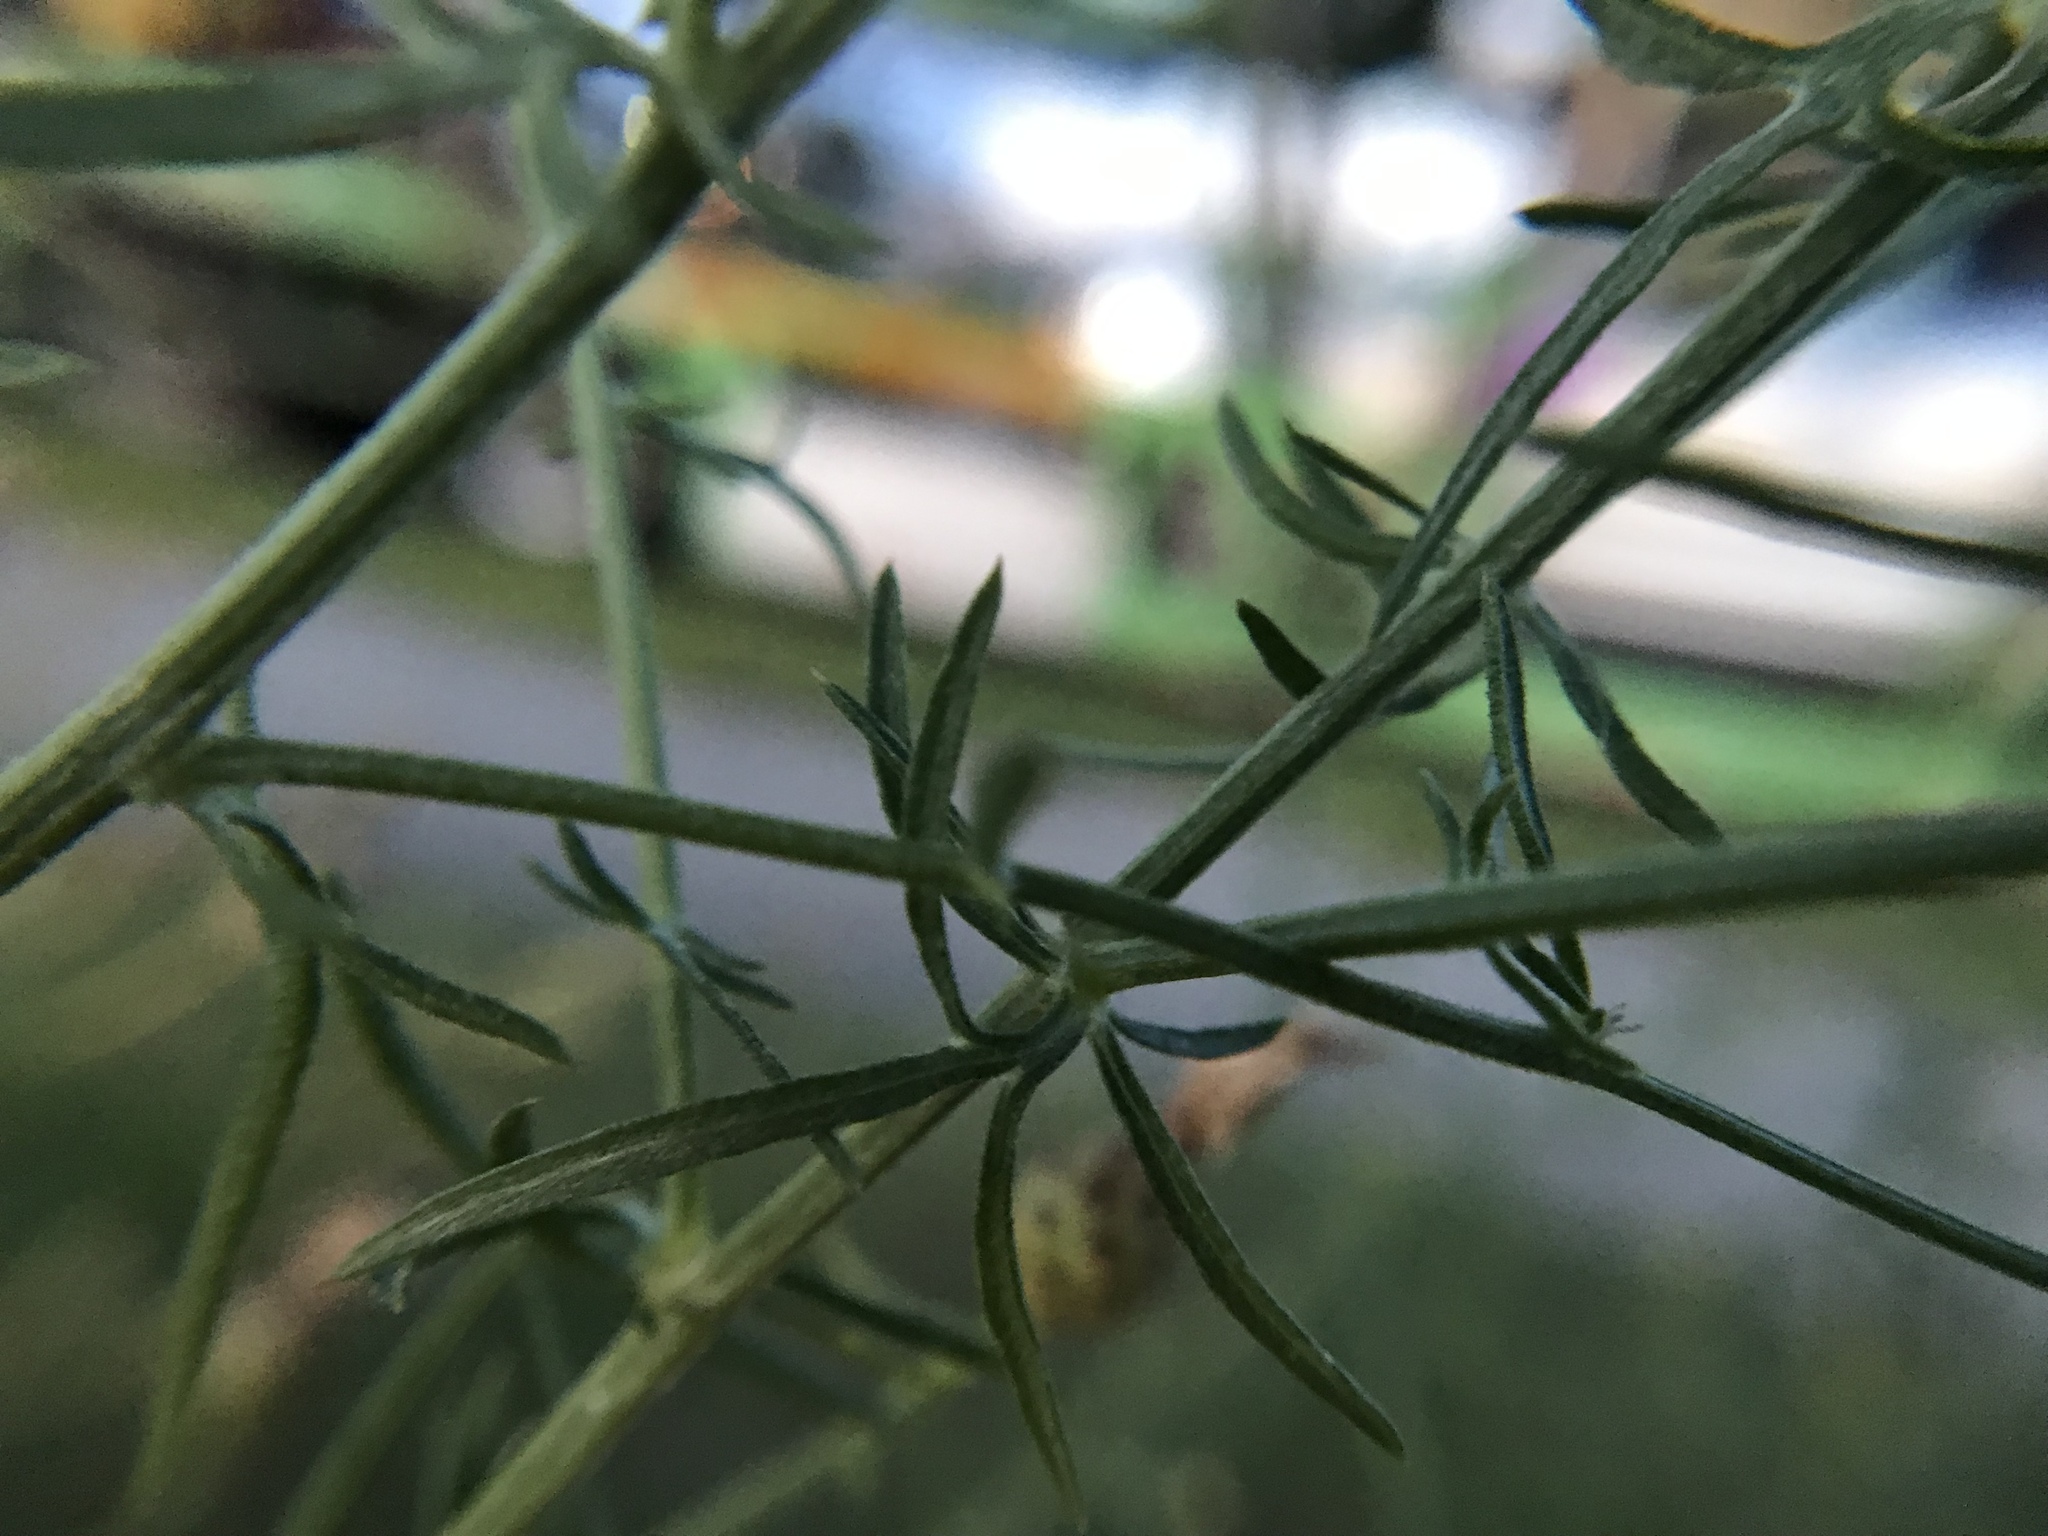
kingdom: Plantae
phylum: Tracheophyta
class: Magnoliopsida
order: Asterales
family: Asteraceae
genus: Centaurea
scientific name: Centaurea stoebe
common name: Spotted knapweed
